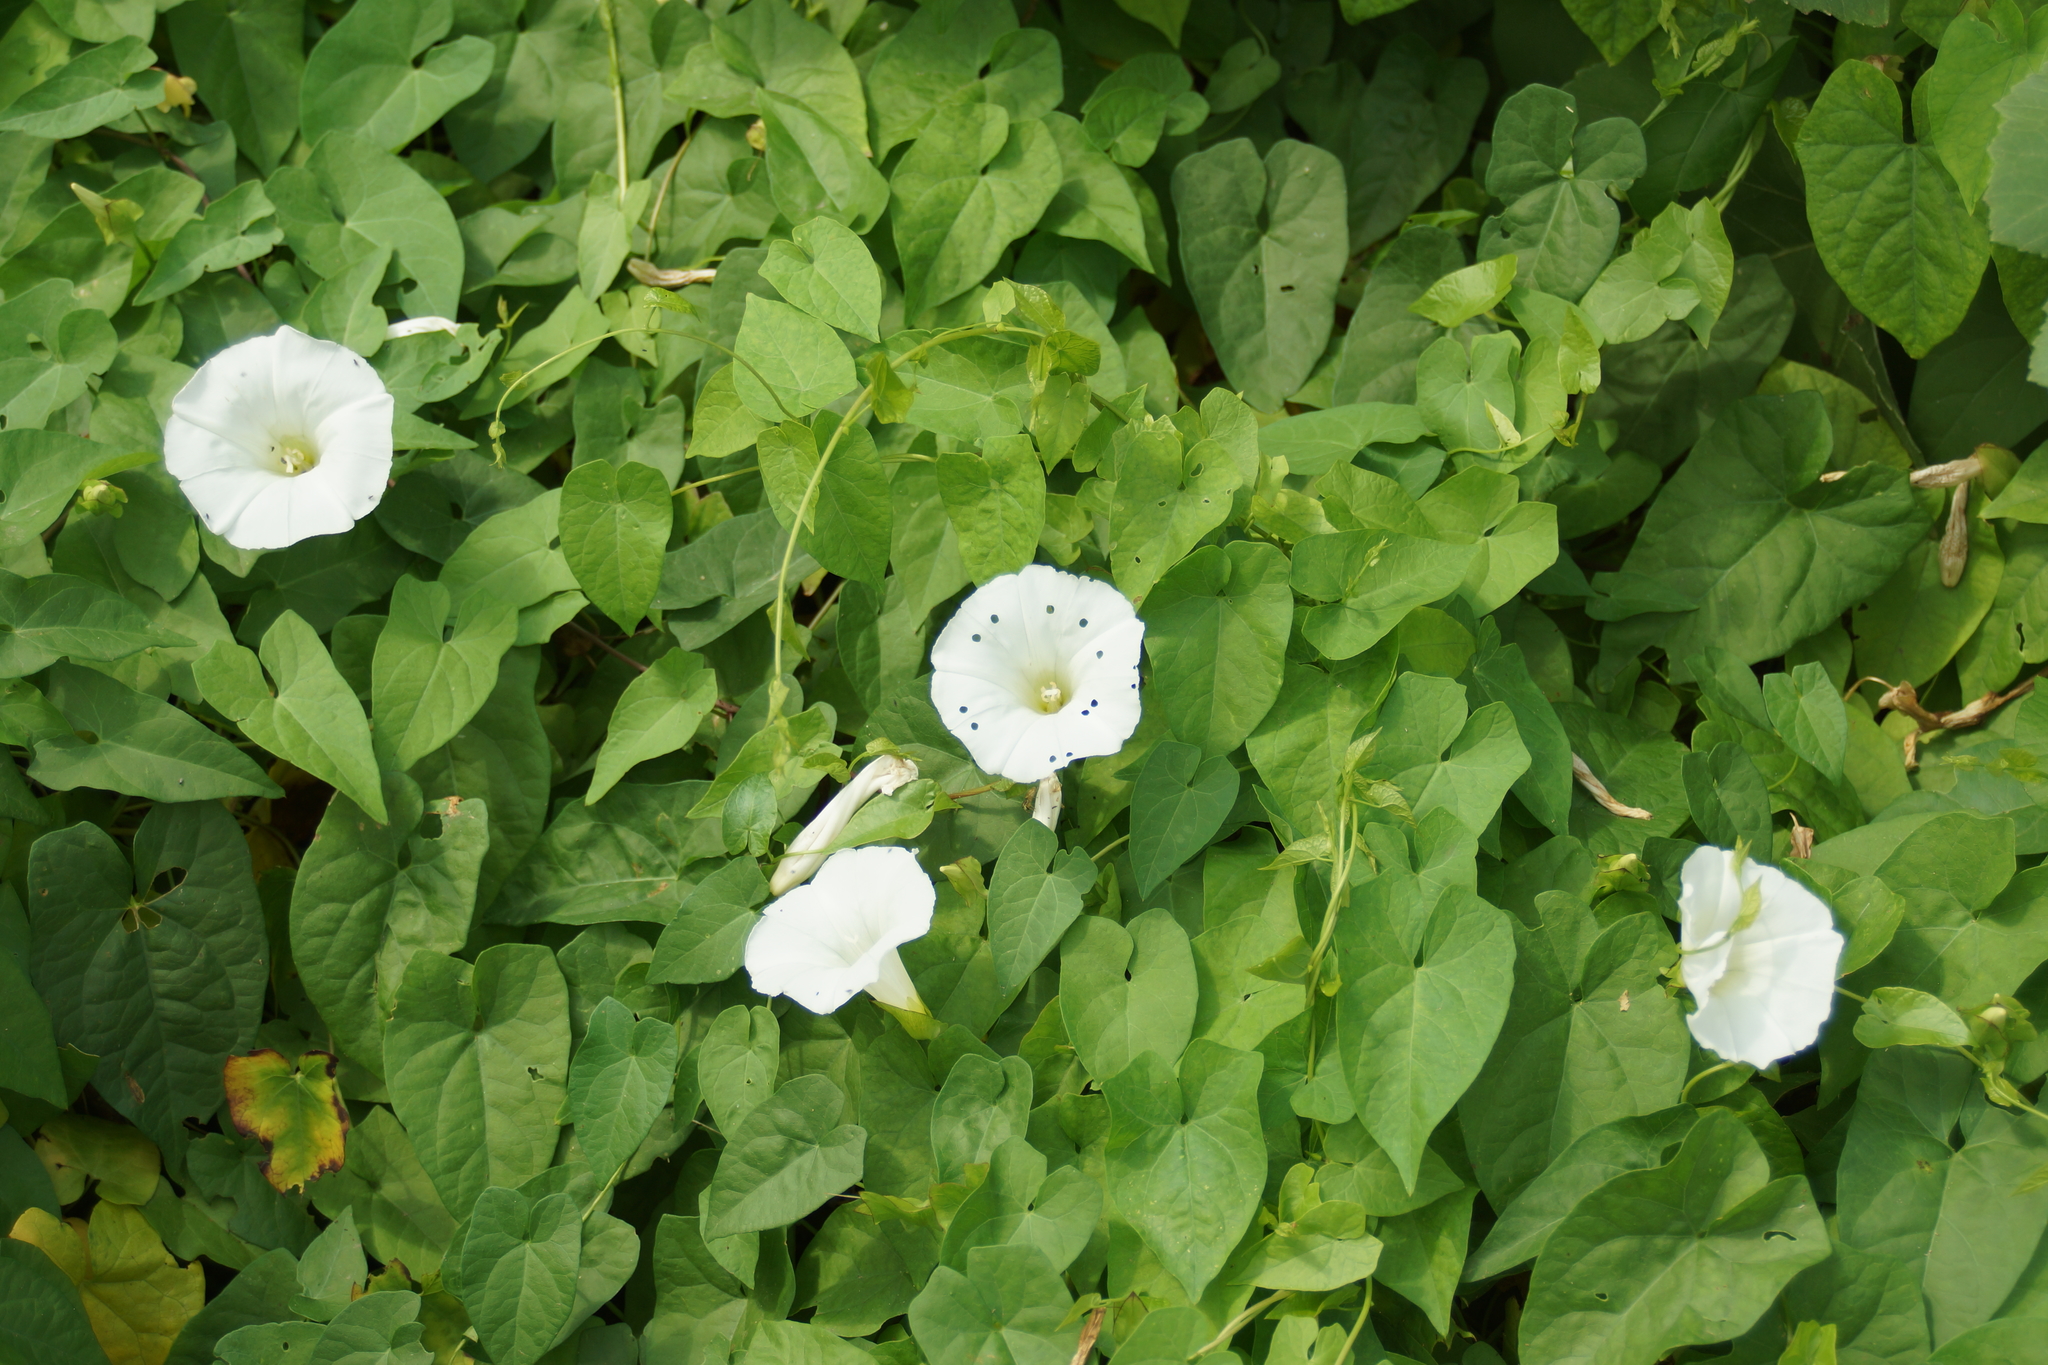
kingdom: Plantae
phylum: Tracheophyta
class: Magnoliopsida
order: Solanales
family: Convolvulaceae
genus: Calystegia
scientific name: Calystegia sepium
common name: Hedge bindweed
